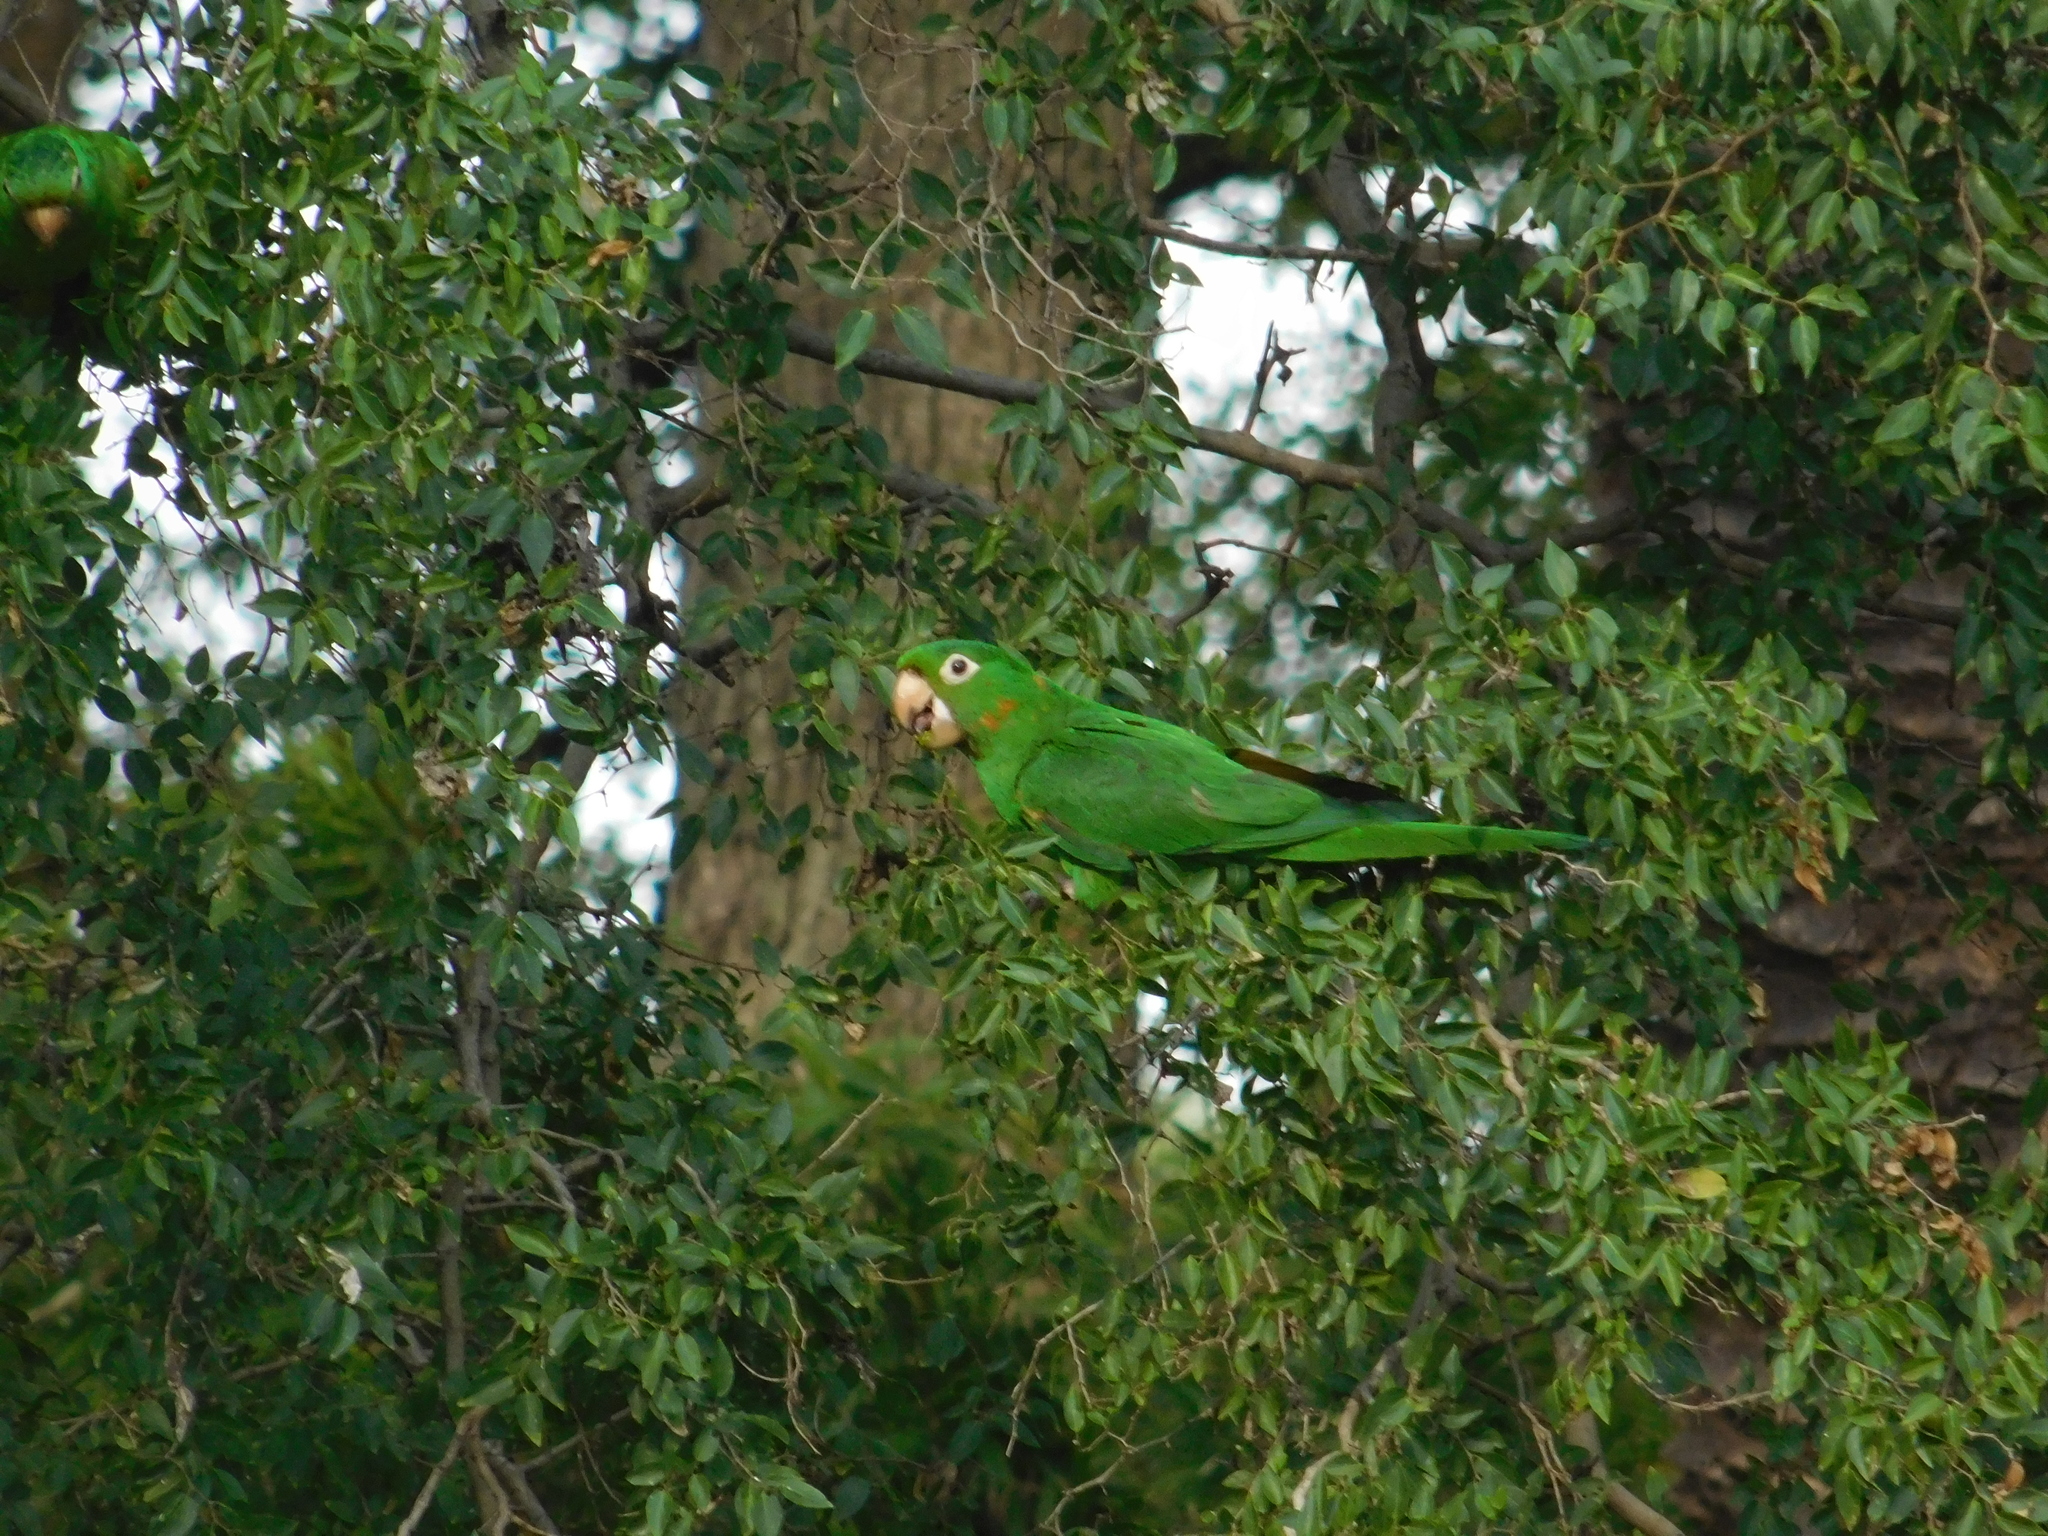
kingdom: Animalia
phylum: Chordata
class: Aves
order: Psittaciformes
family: Psittacidae
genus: Aratinga
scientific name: Aratinga leucophthalma
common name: White-eyed parakeet
